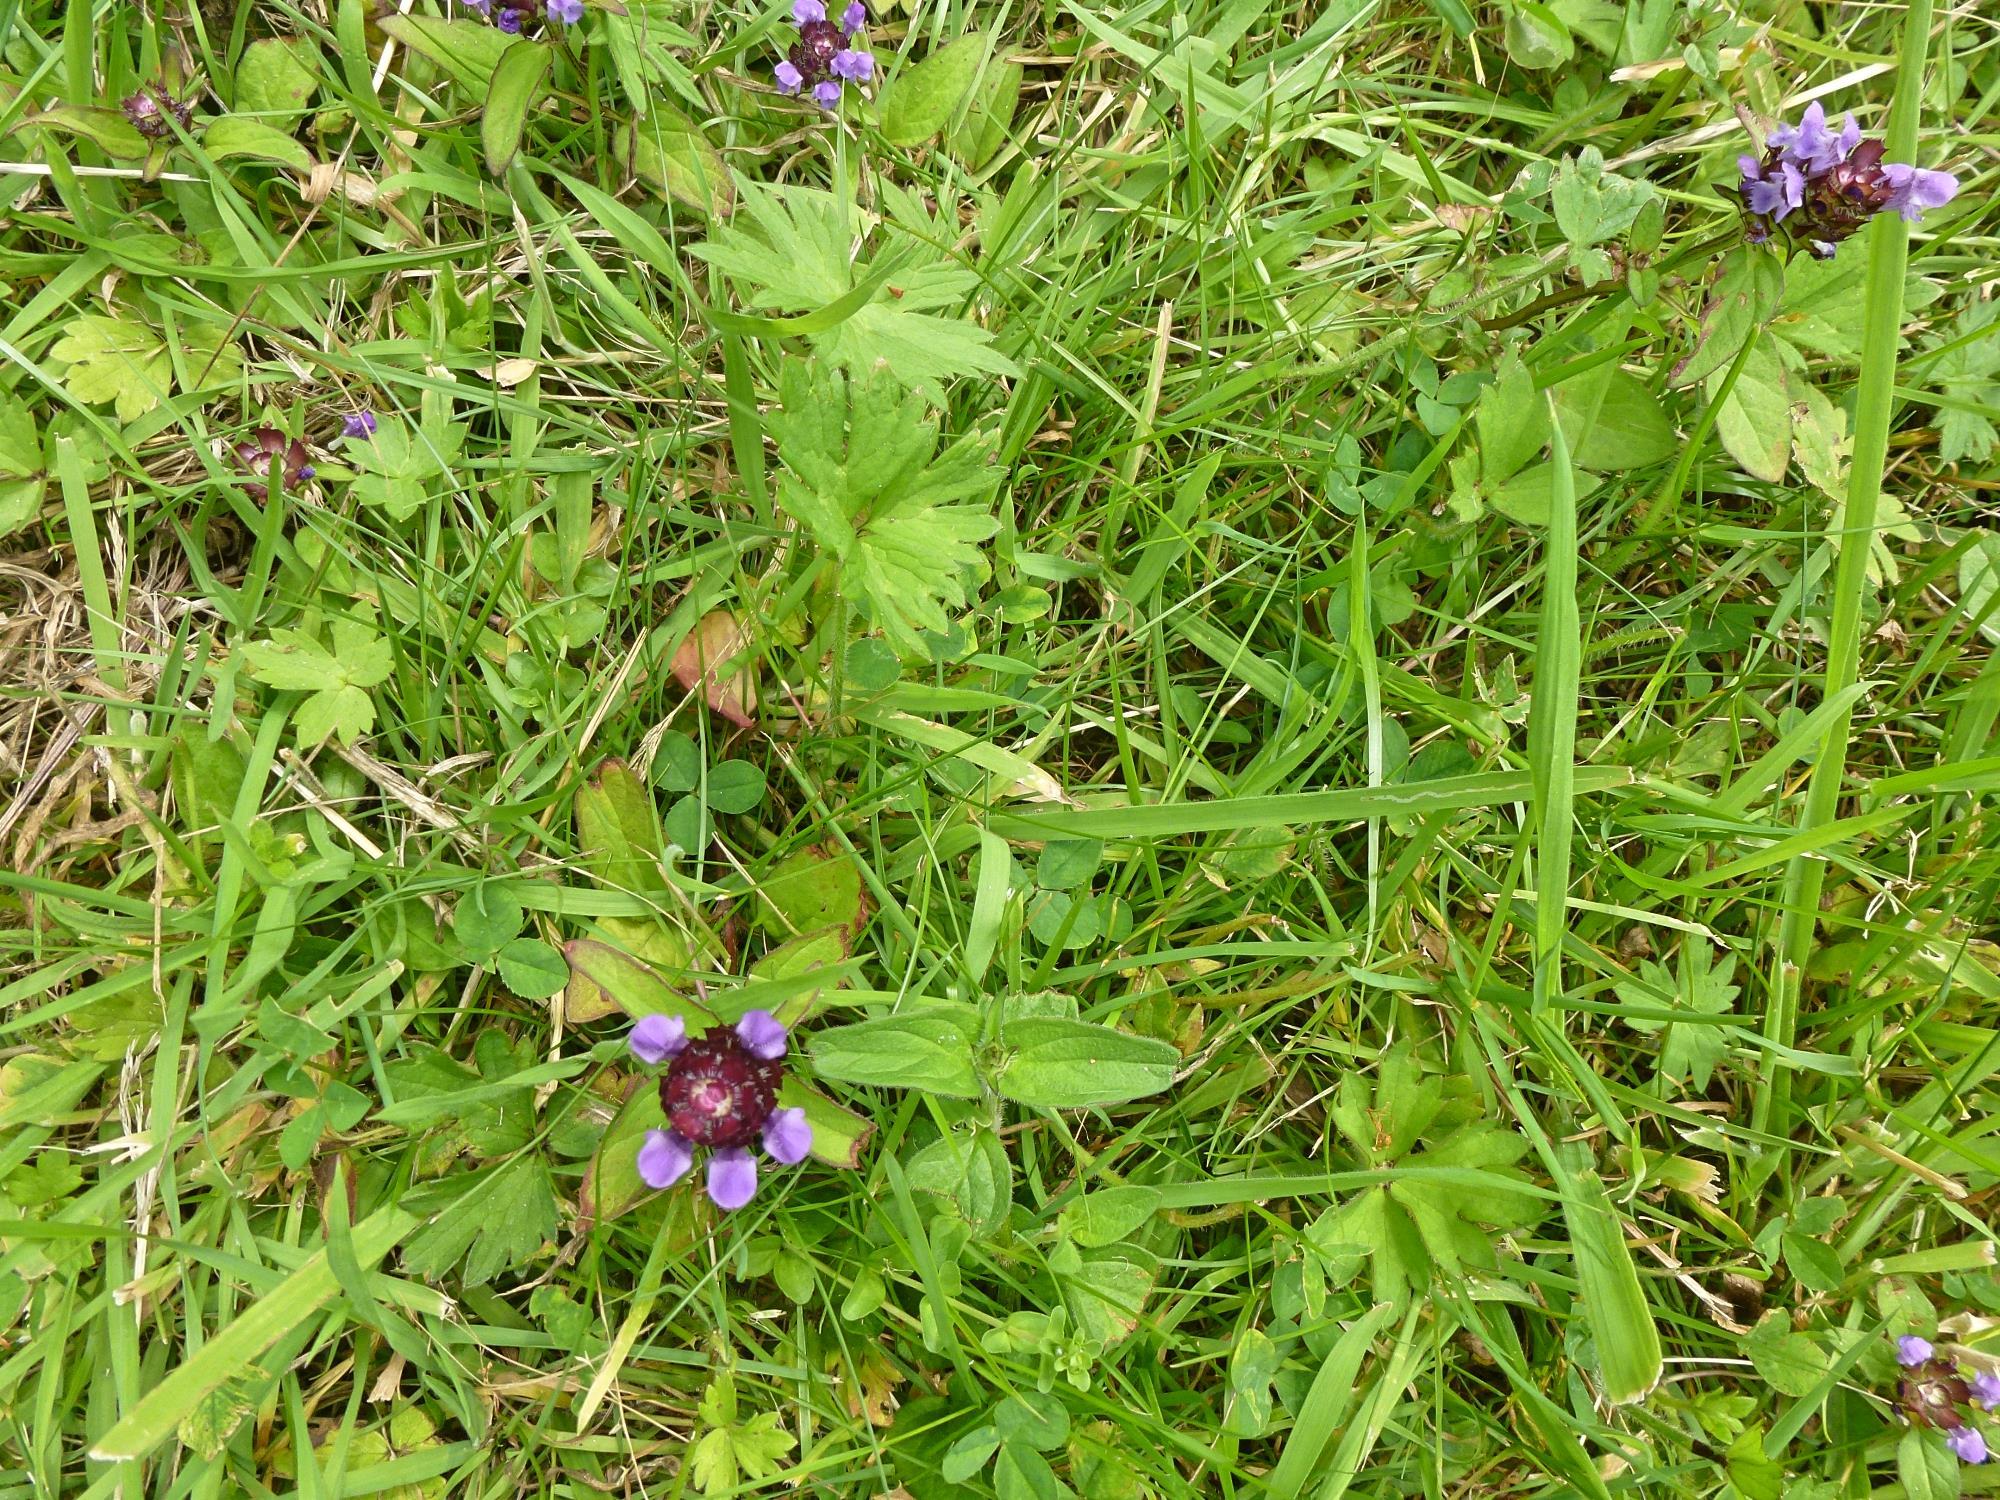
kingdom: Plantae
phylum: Tracheophyta
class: Magnoliopsida
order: Lamiales
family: Lamiaceae
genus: Prunella
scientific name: Prunella vulgaris
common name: Heal-all
